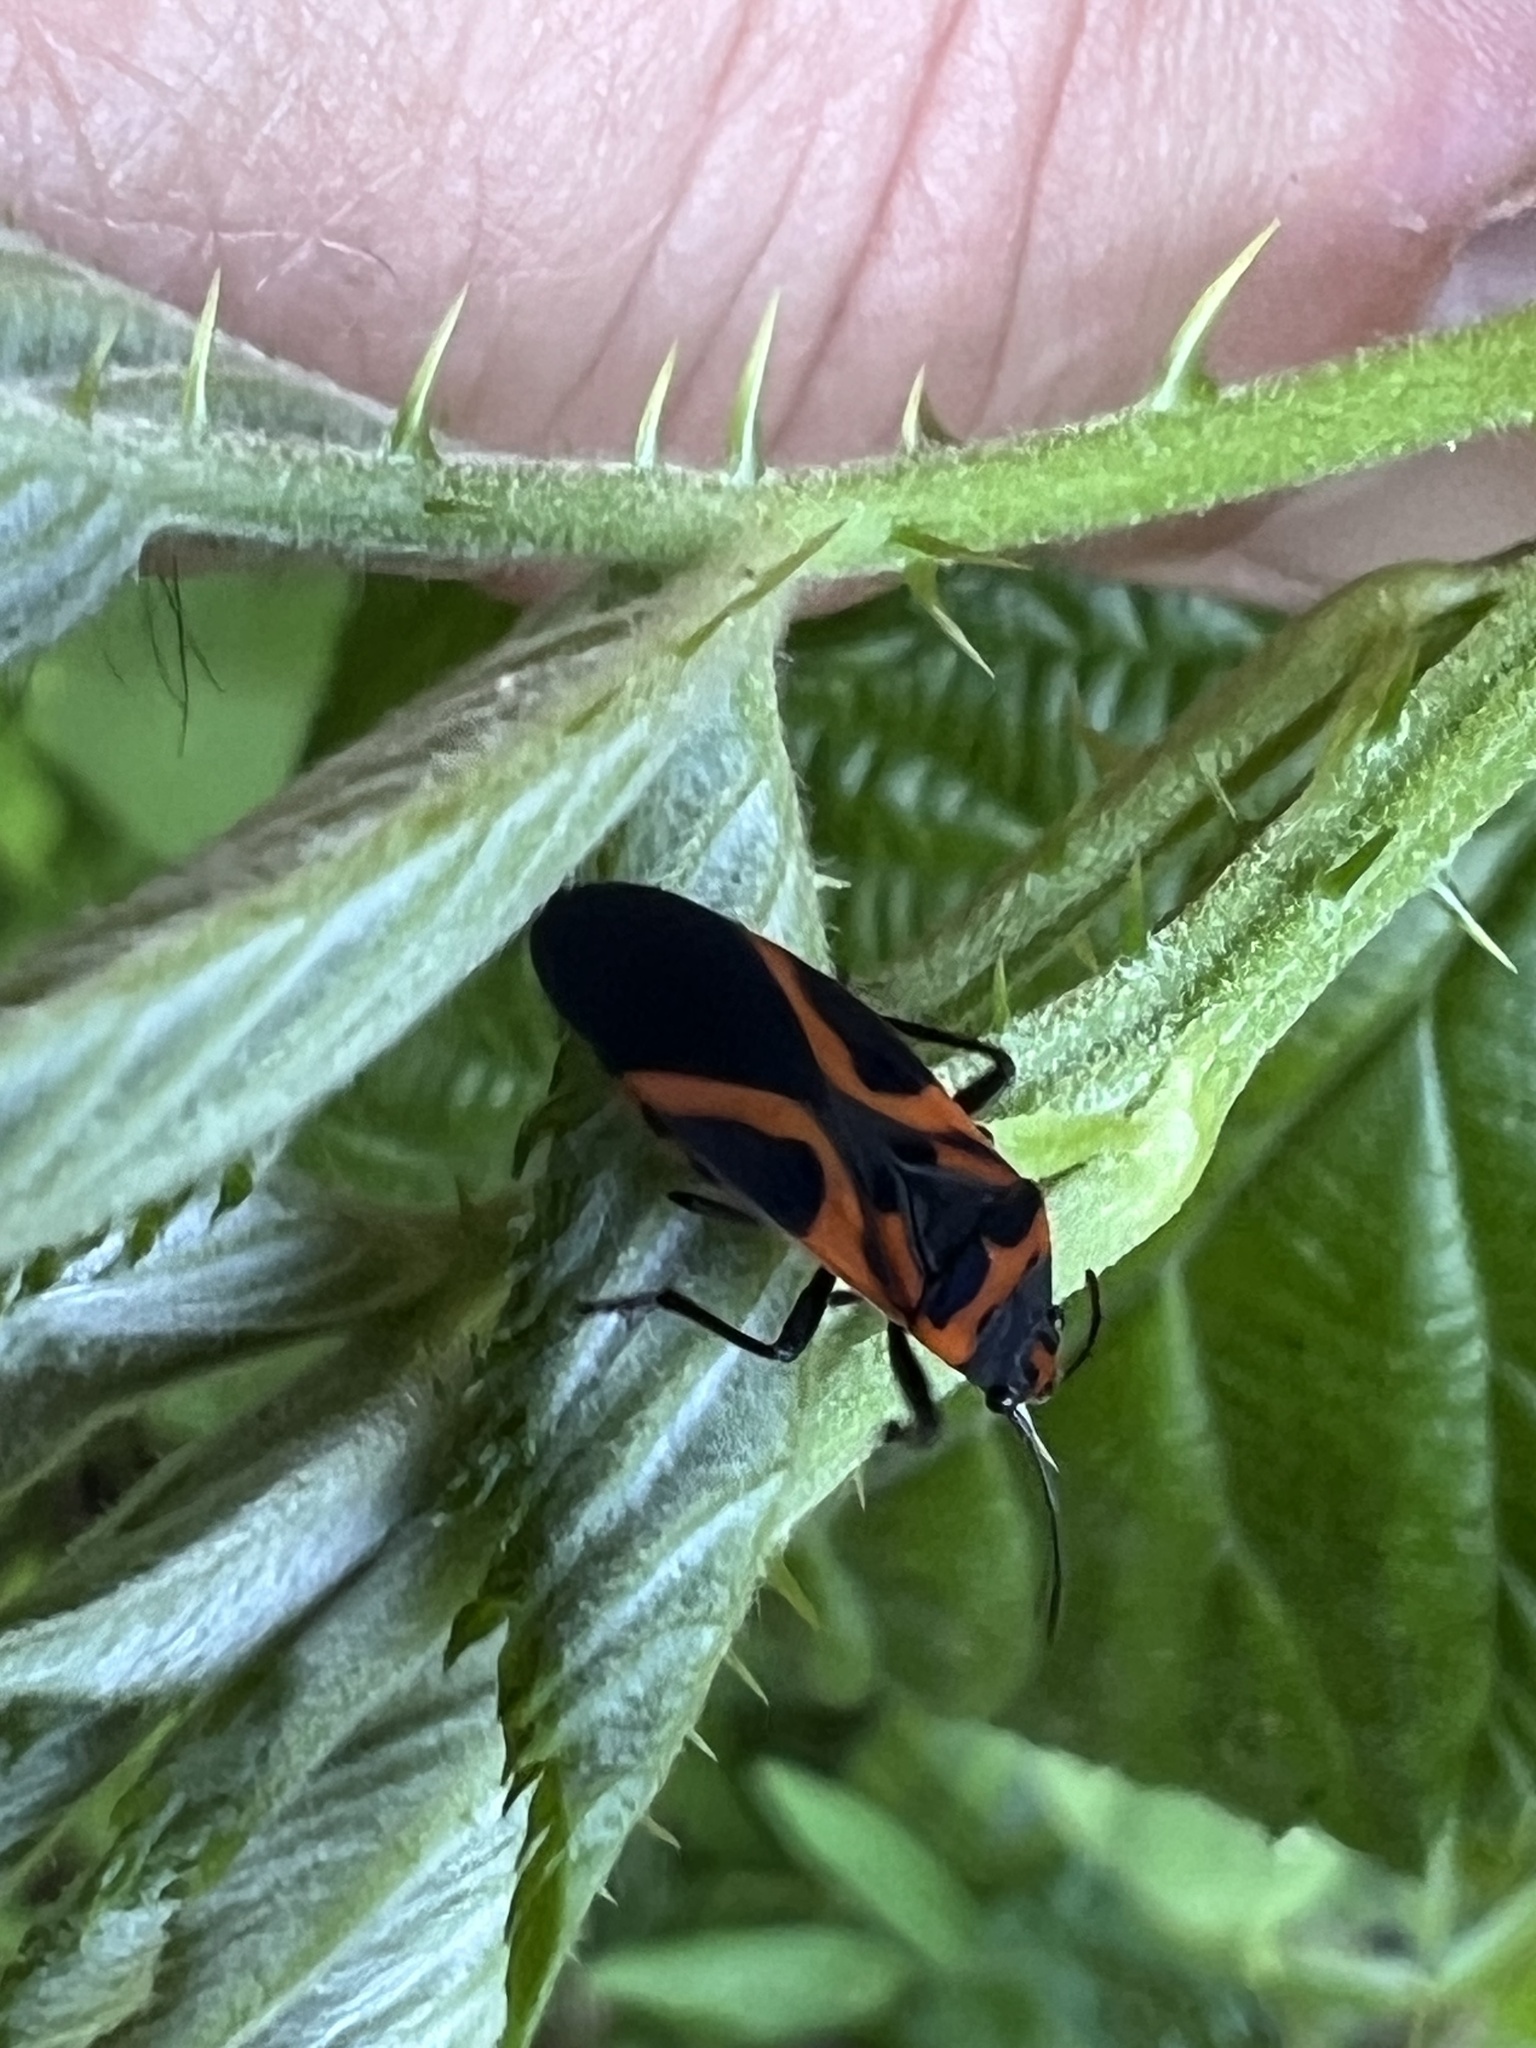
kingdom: Animalia
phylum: Arthropoda
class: Insecta
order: Hemiptera
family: Lygaeidae
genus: Lygaeus
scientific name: Lygaeus turcicus
